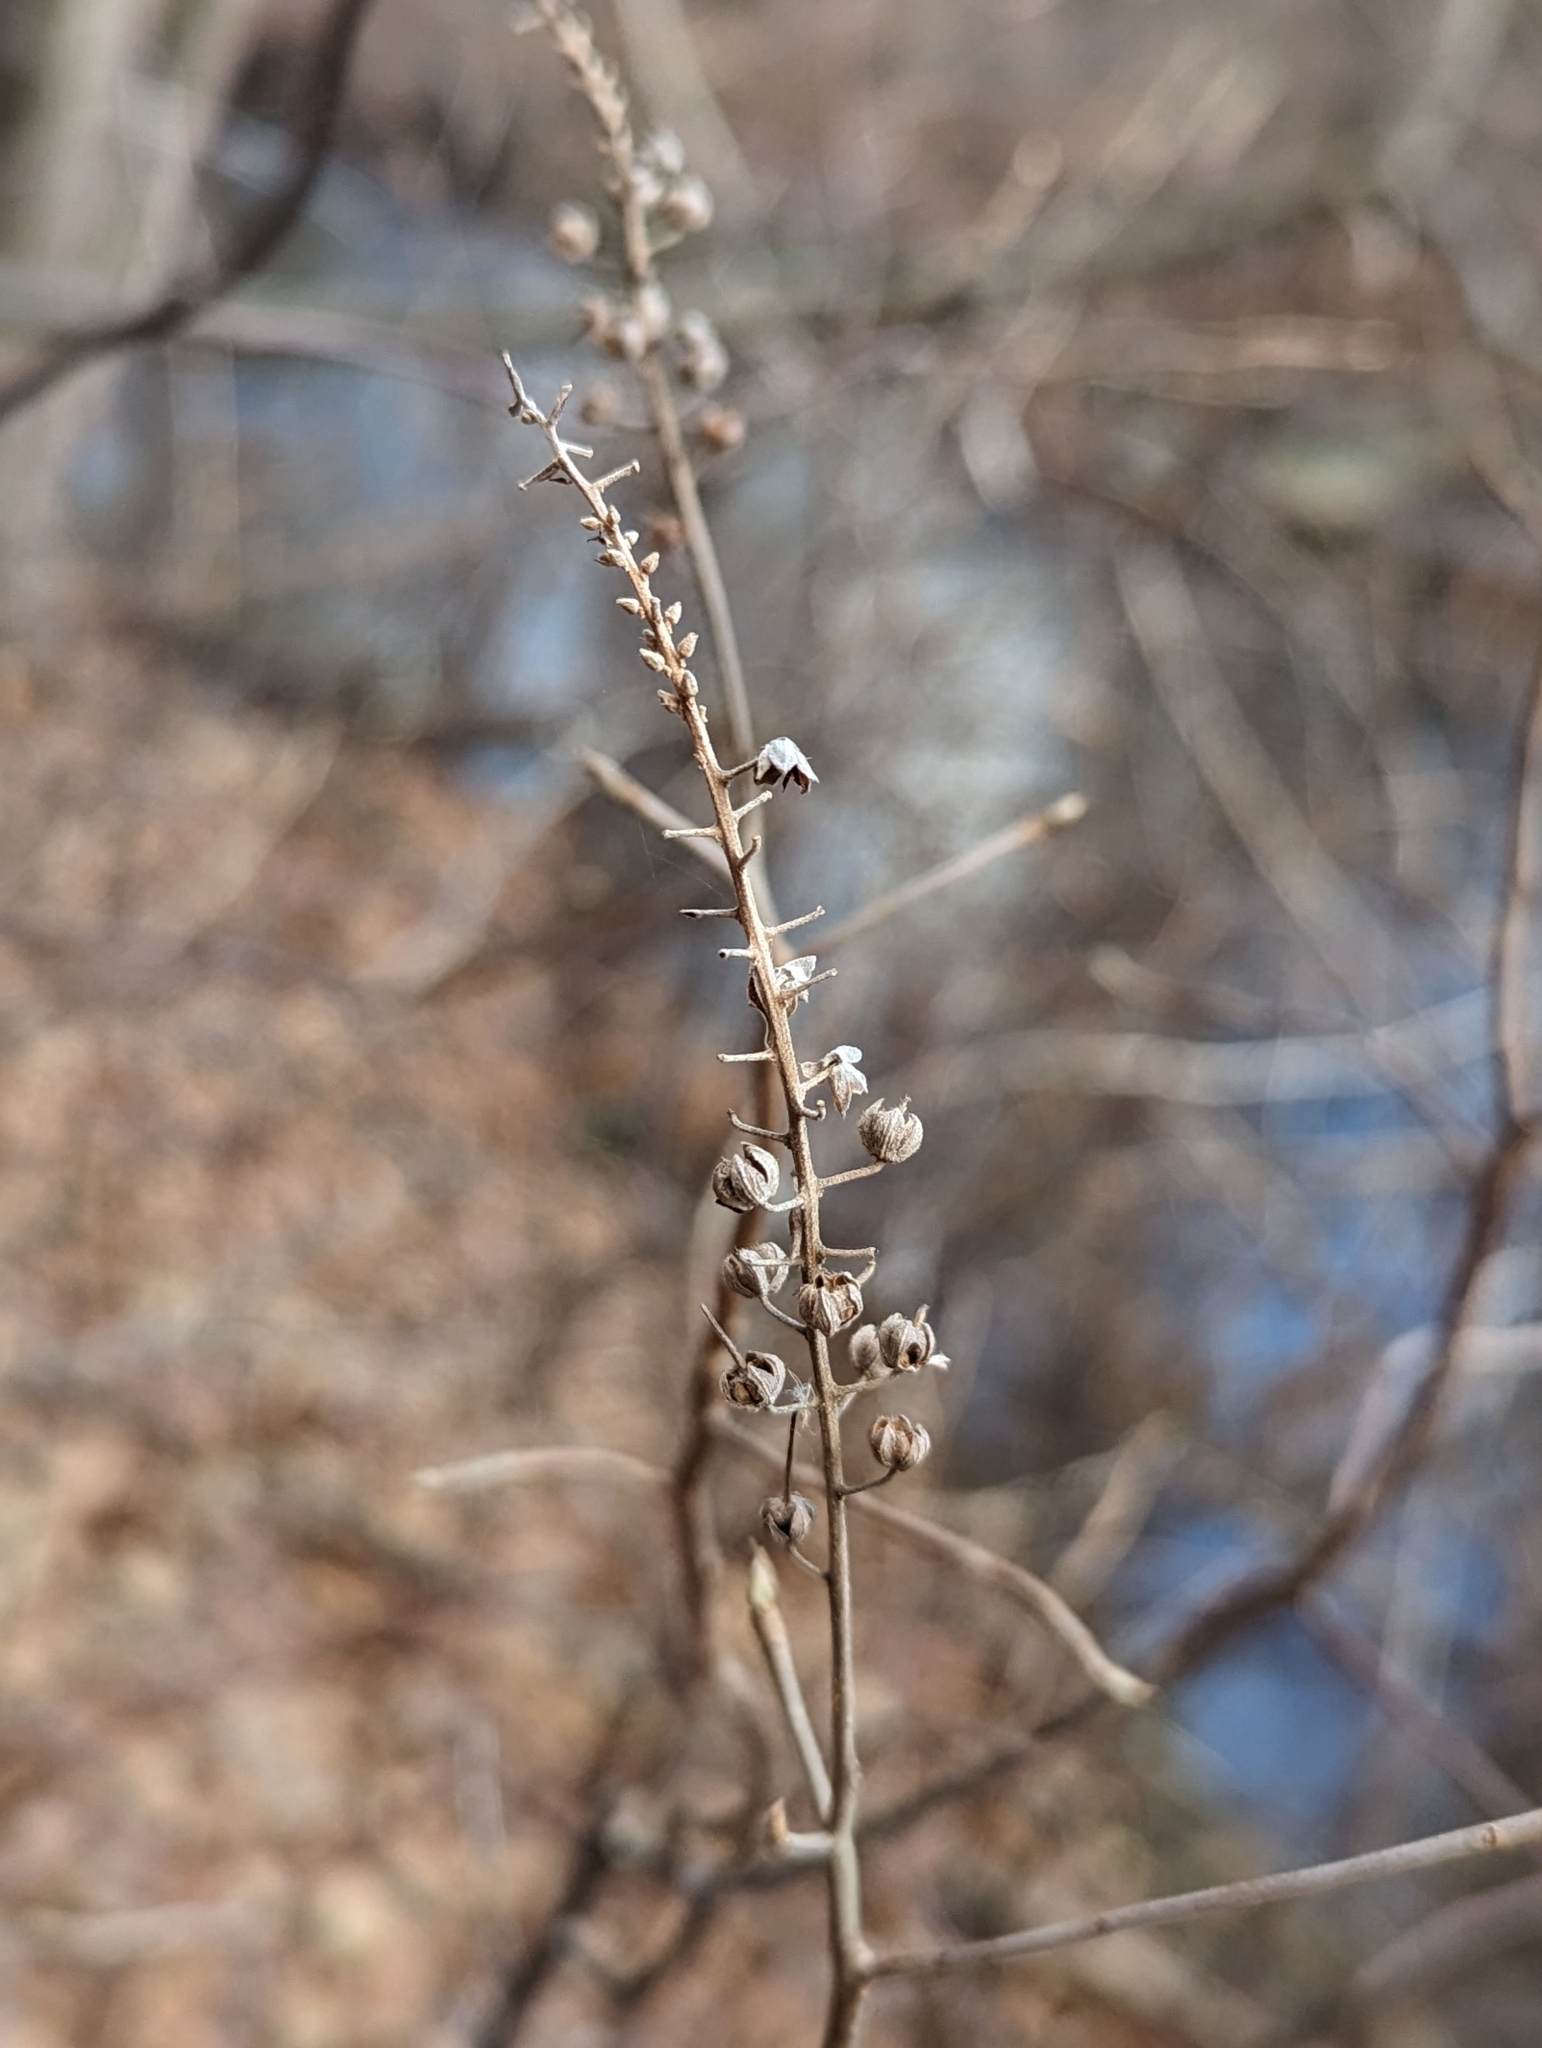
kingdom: Plantae
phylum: Tracheophyta
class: Magnoliopsida
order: Ericales
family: Clethraceae
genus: Clethra
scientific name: Clethra alnifolia
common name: Sweet pepperbush
